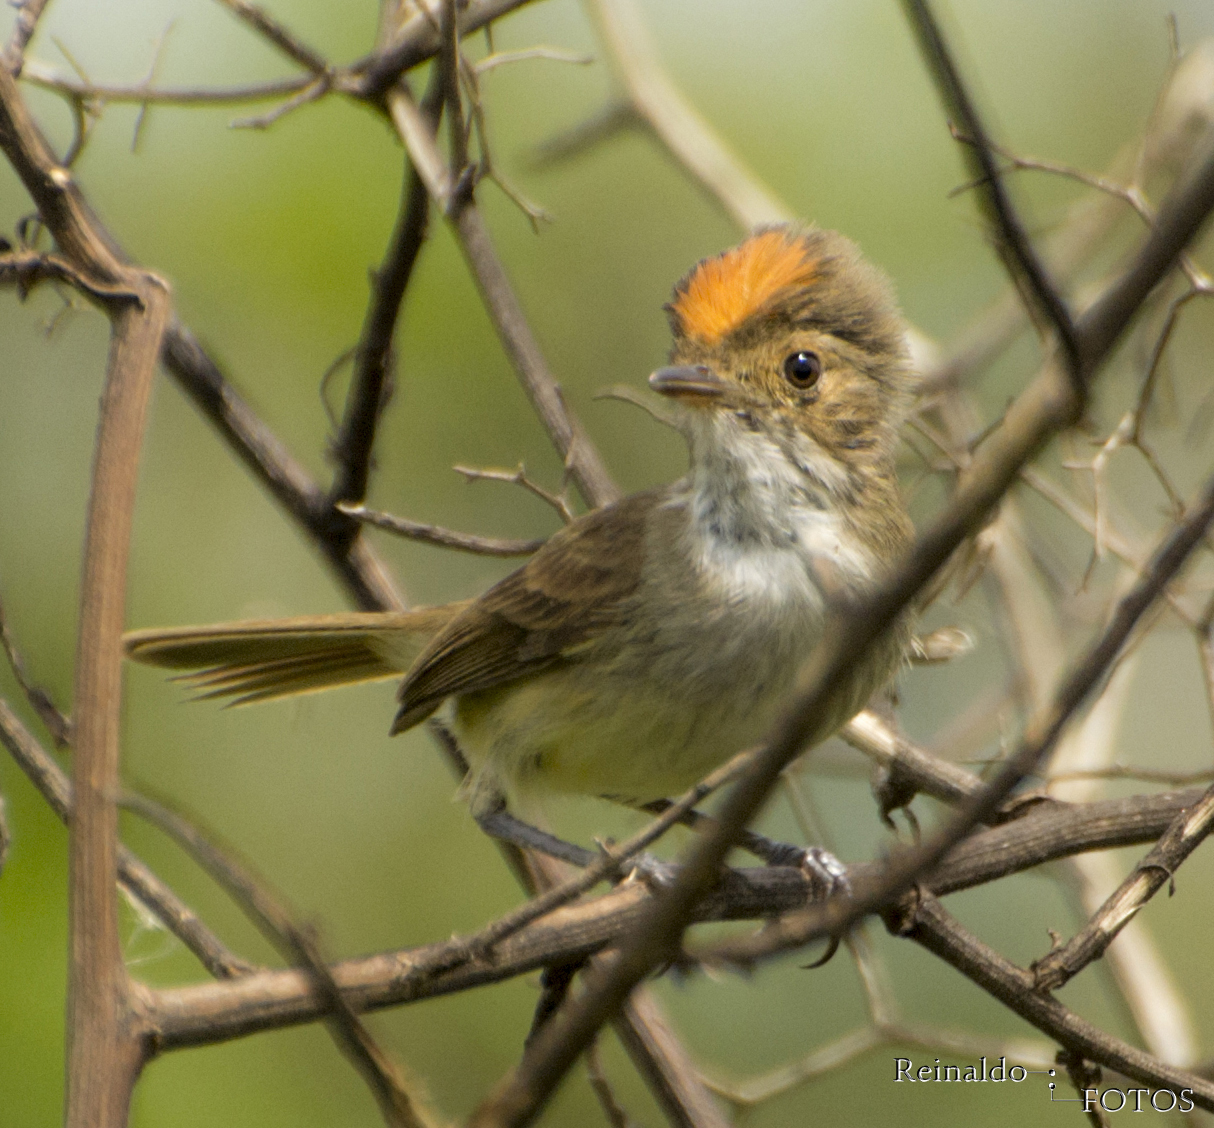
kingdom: Animalia
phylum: Chordata
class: Aves
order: Passeriformes
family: Tyrannidae
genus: Euscarthmus
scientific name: Euscarthmus meloryphus
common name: Tawny-crowned pygmy tyrant
